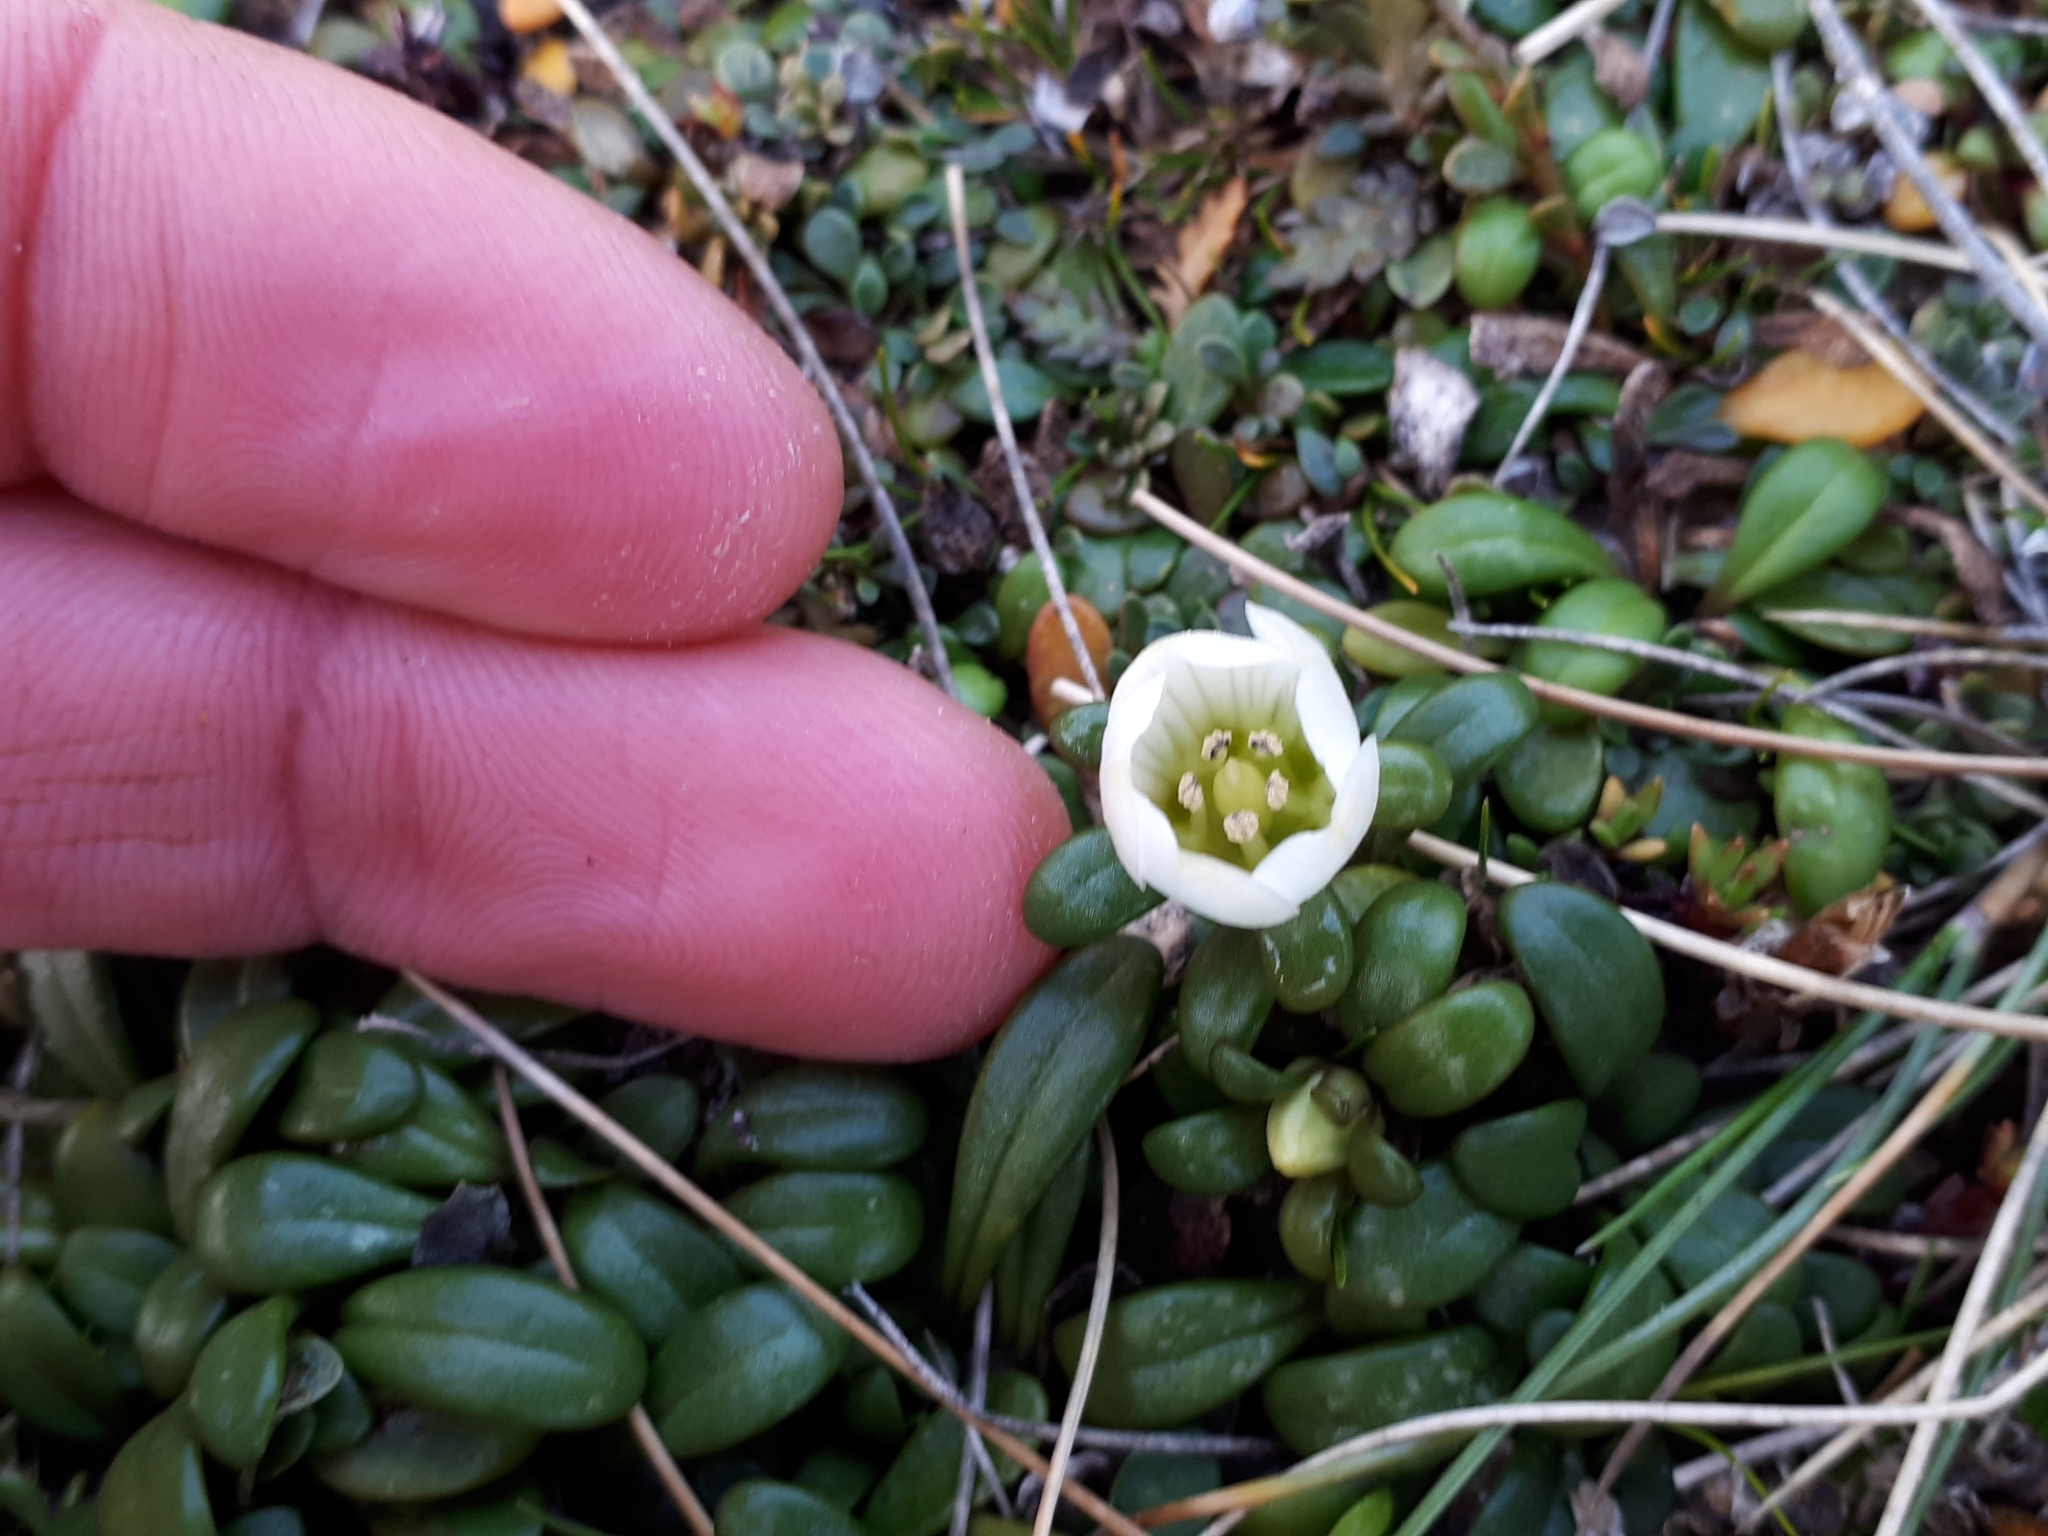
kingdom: Plantae
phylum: Tracheophyta
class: Magnoliopsida
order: Gentianales
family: Gentianaceae
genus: Gentianella
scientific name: Gentianella saxosa
